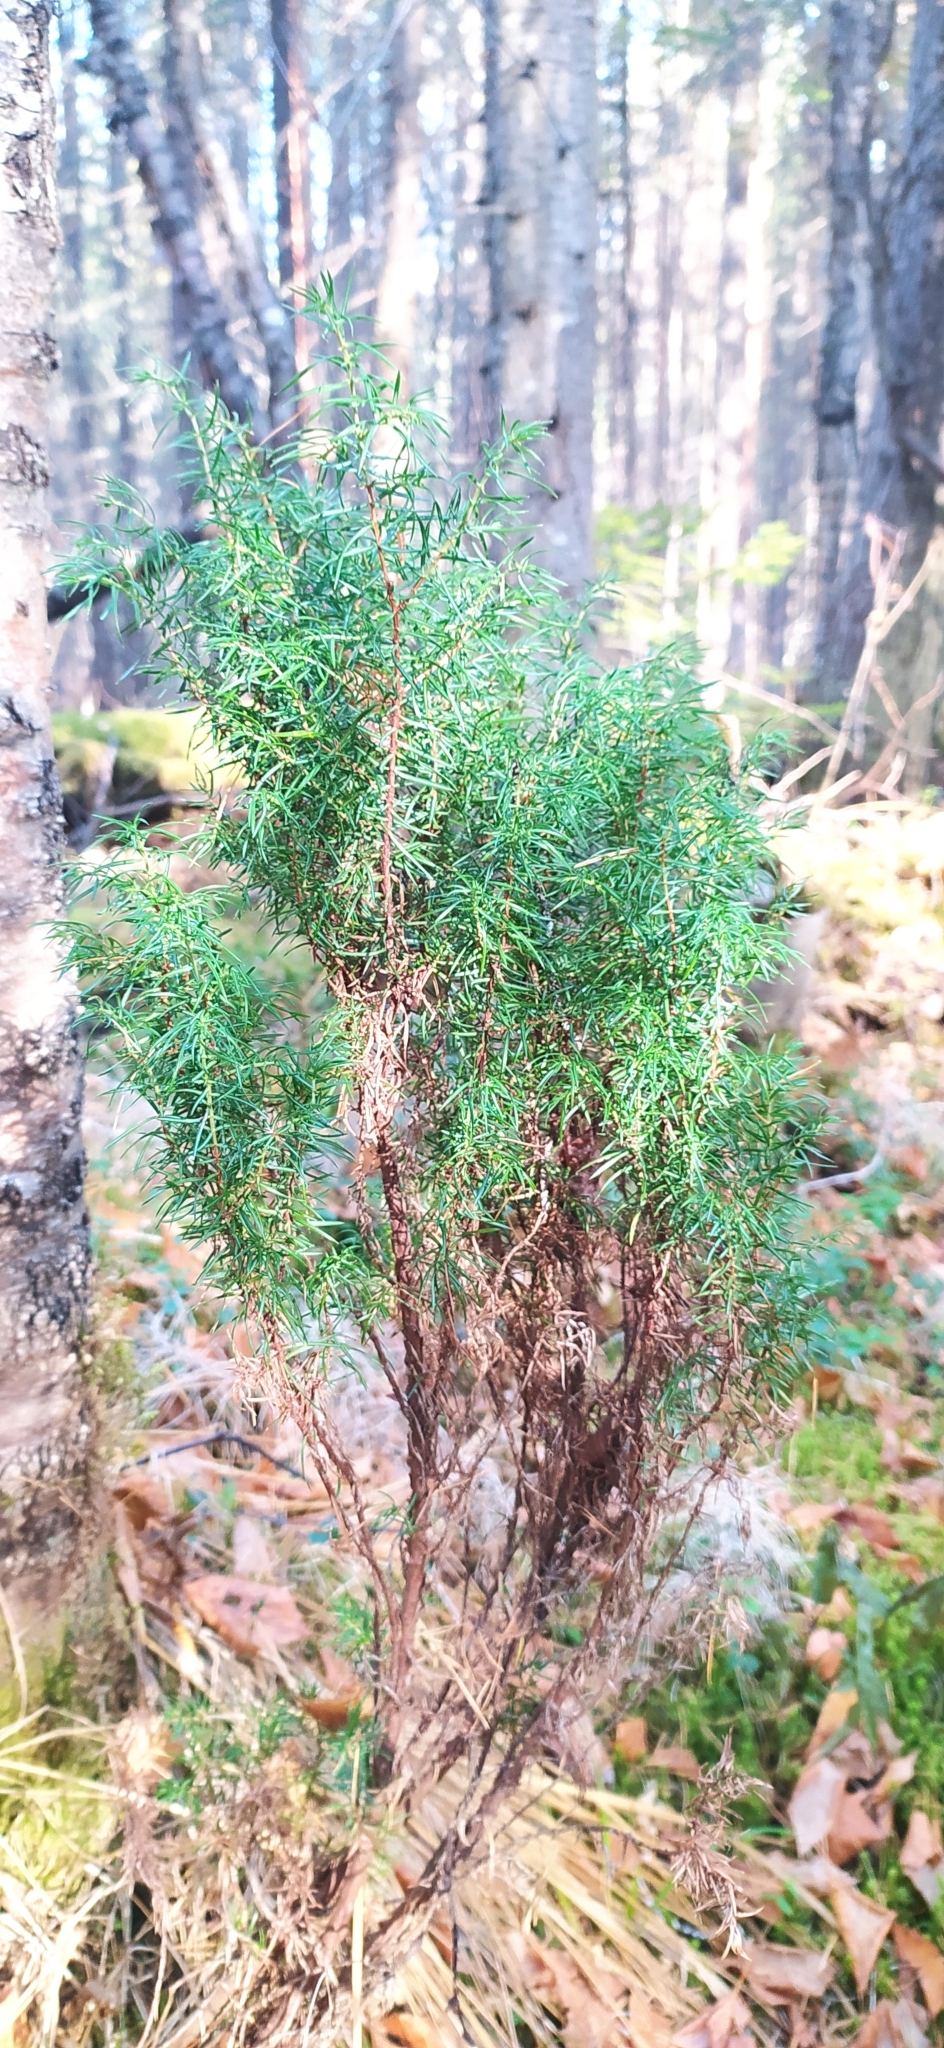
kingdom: Plantae
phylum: Tracheophyta
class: Pinopsida
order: Pinales
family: Cupressaceae
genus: Juniperus
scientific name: Juniperus communis
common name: Common juniper
